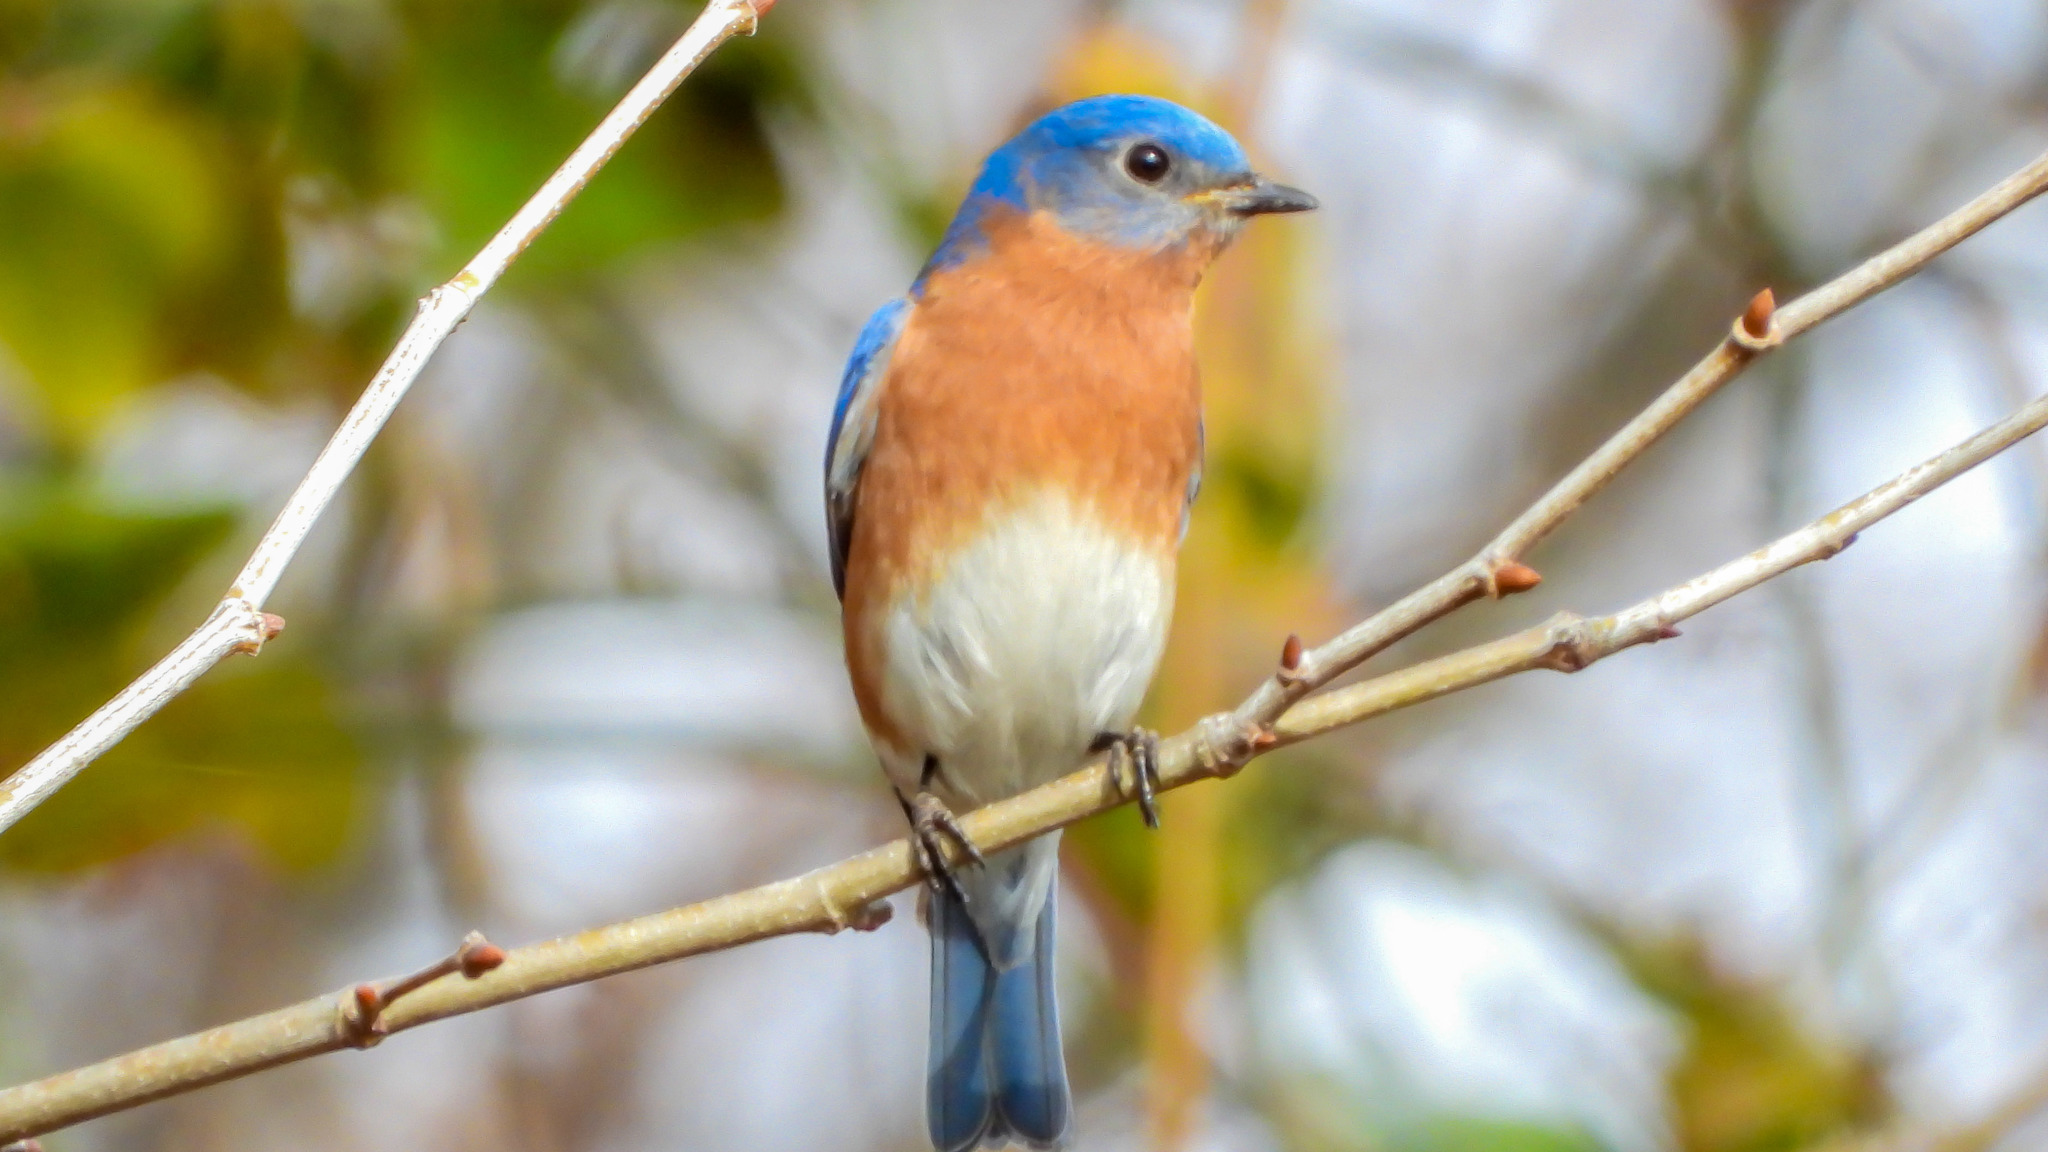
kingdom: Animalia
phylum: Chordata
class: Aves
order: Passeriformes
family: Turdidae
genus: Sialia
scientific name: Sialia sialis
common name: Eastern bluebird
